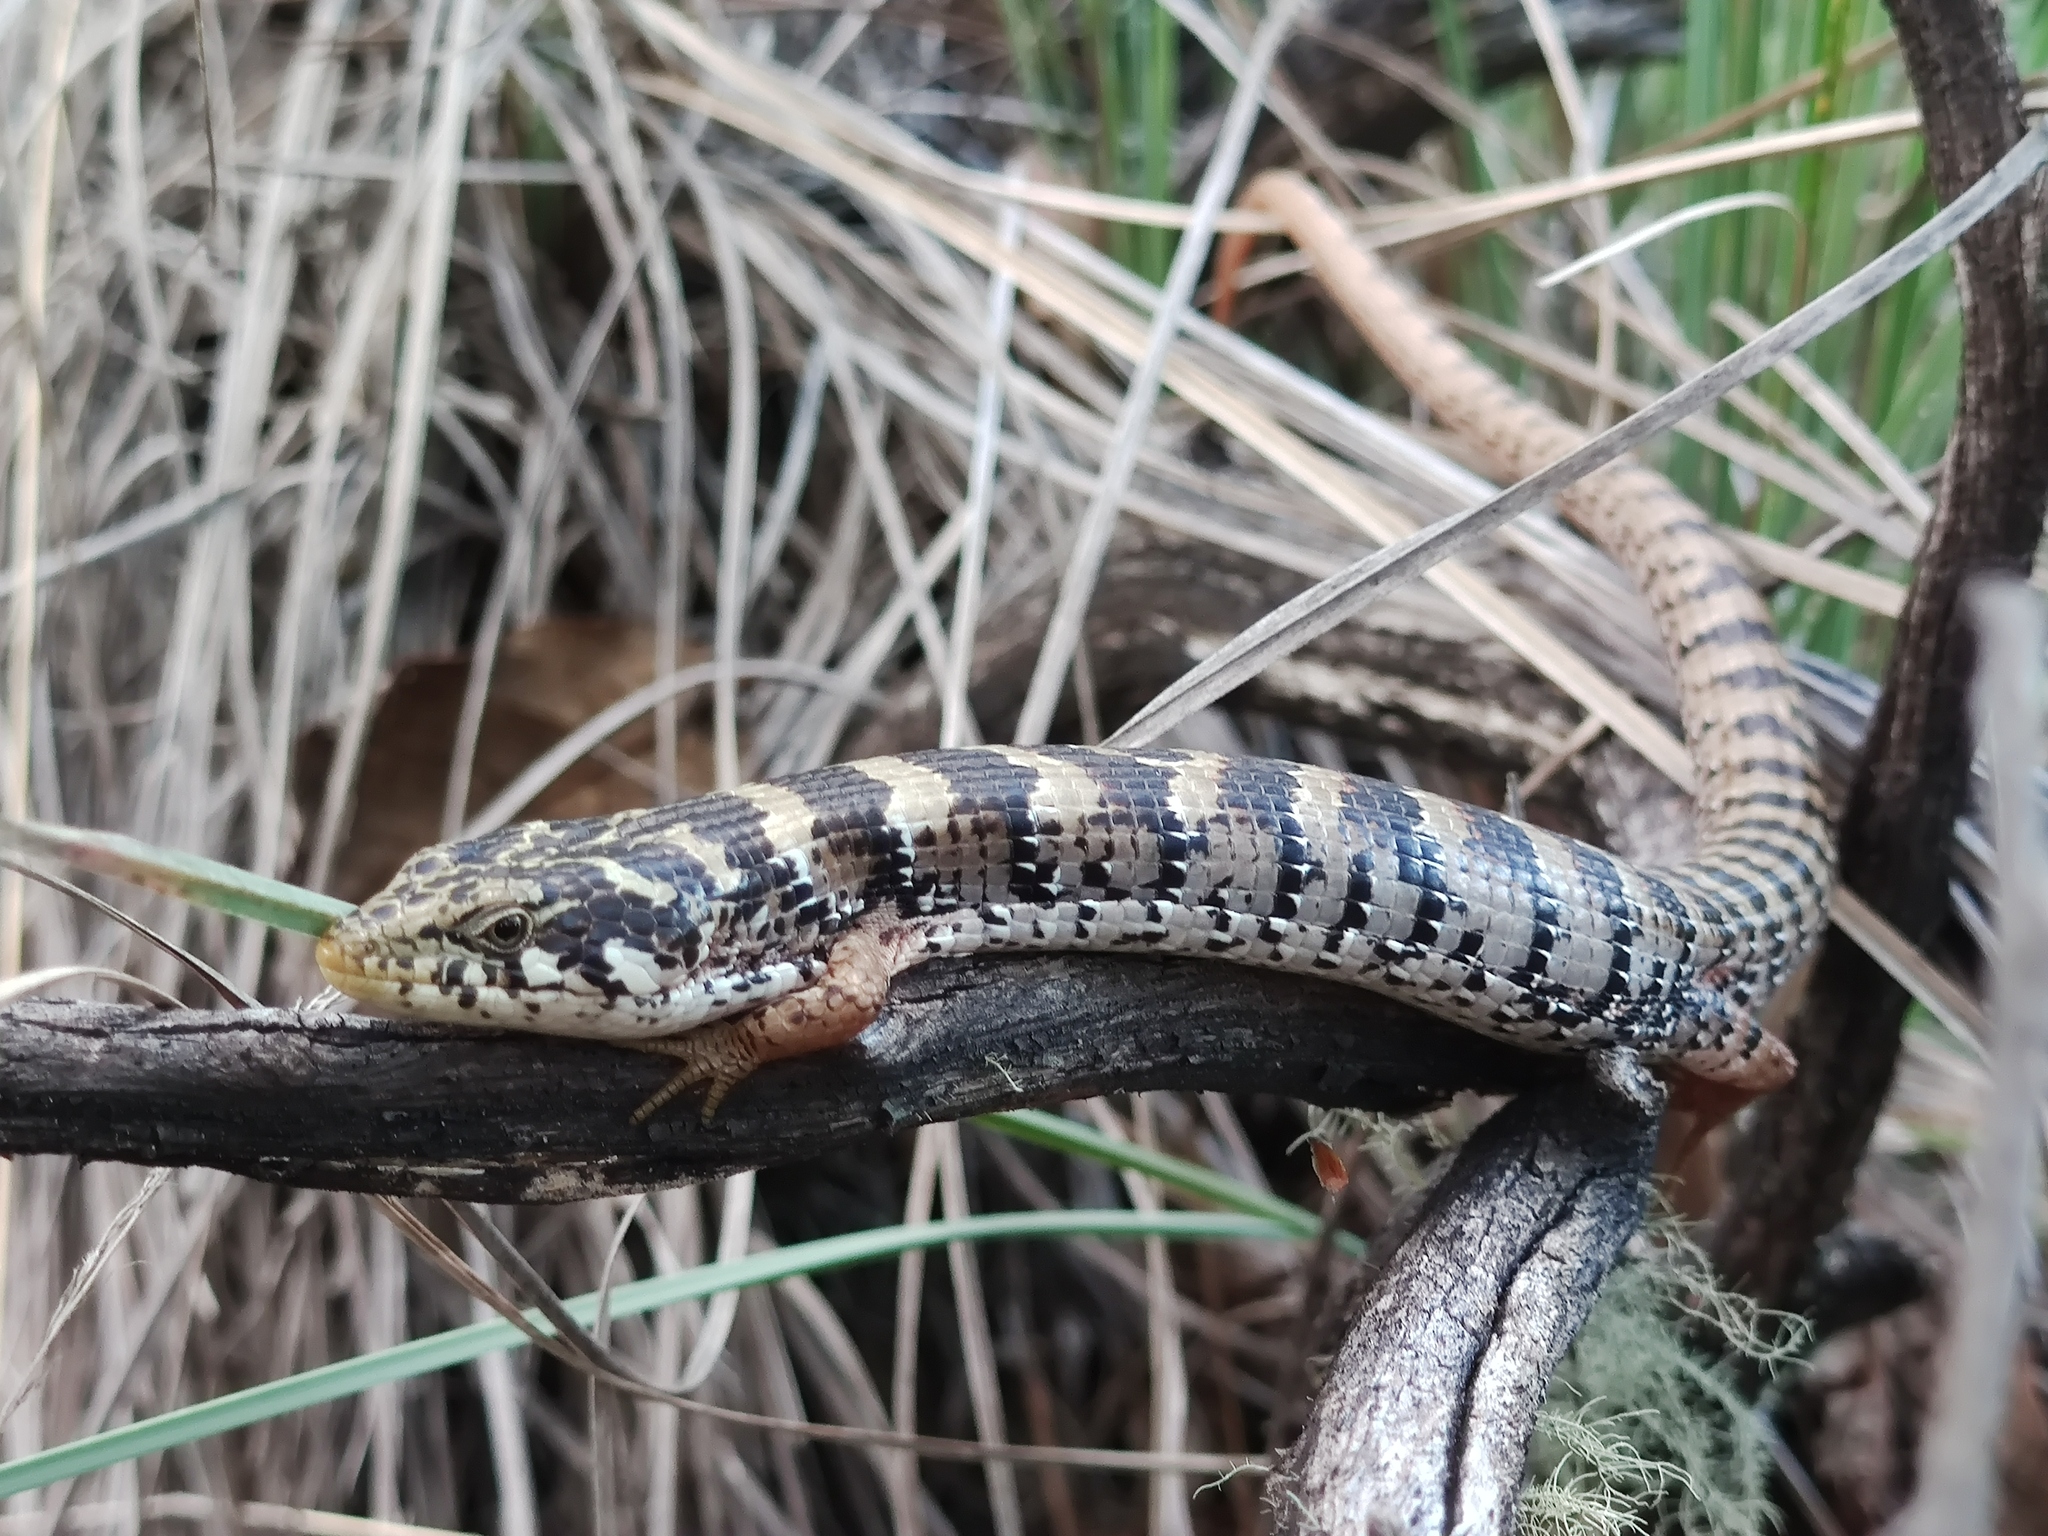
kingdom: Animalia
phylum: Chordata
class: Squamata
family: Anguidae
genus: Elgaria
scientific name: Elgaria kingii
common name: Madrean alligator lizard
